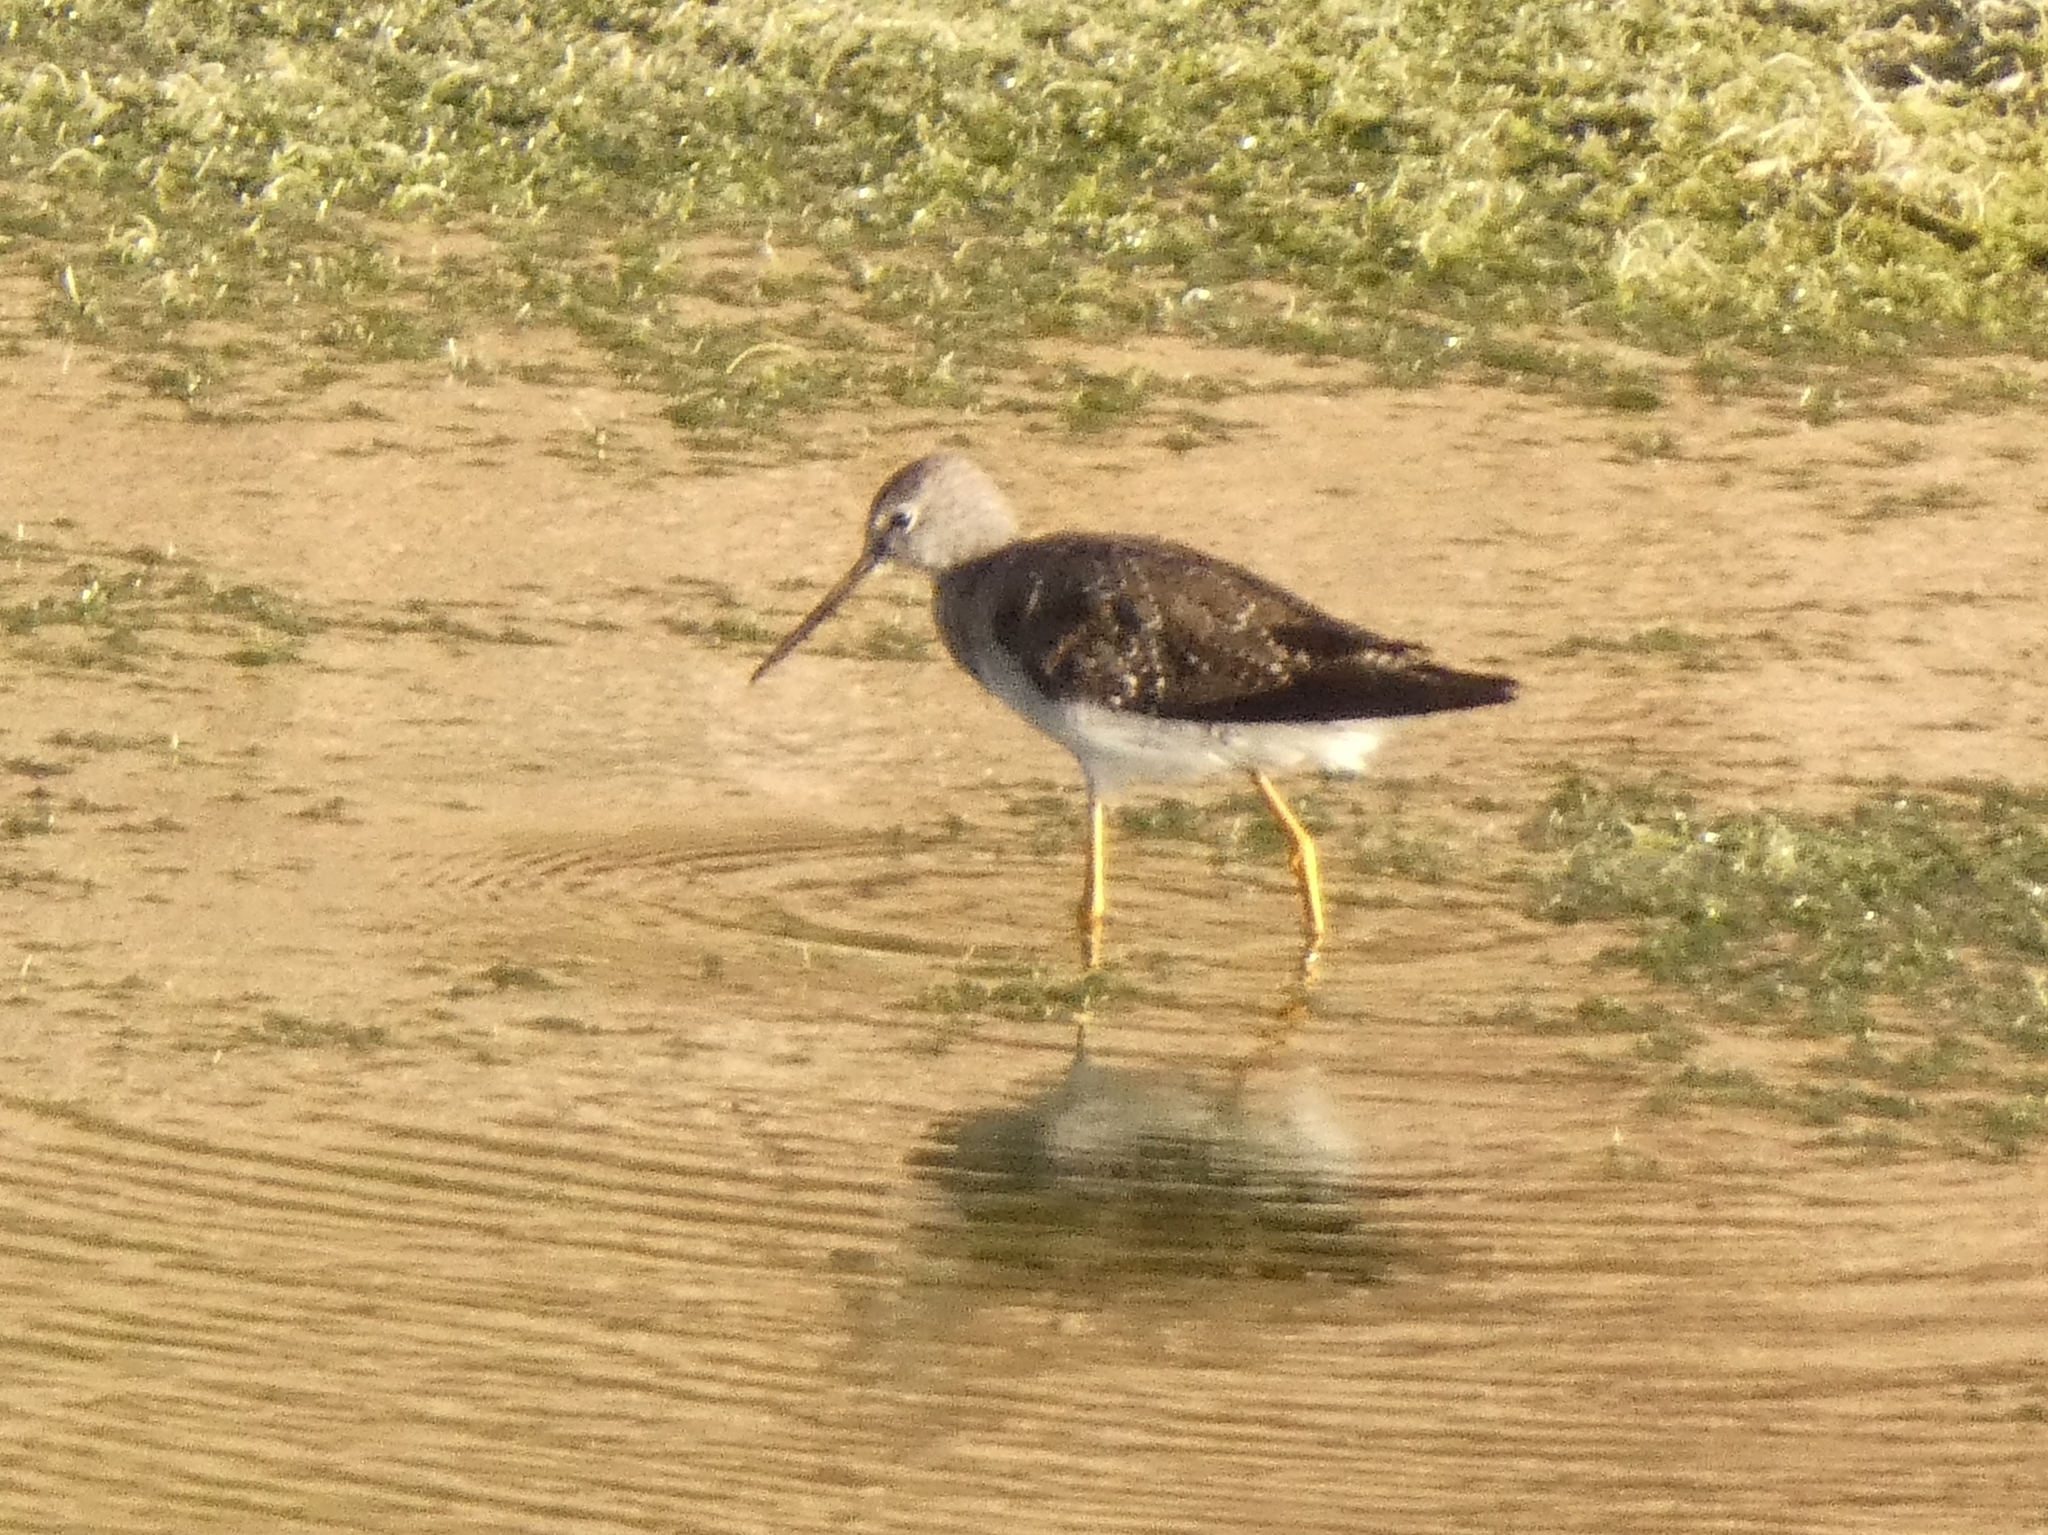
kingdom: Animalia
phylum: Chordata
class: Aves
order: Charadriiformes
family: Scolopacidae
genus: Tringa
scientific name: Tringa melanoleuca
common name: Greater yellowlegs
